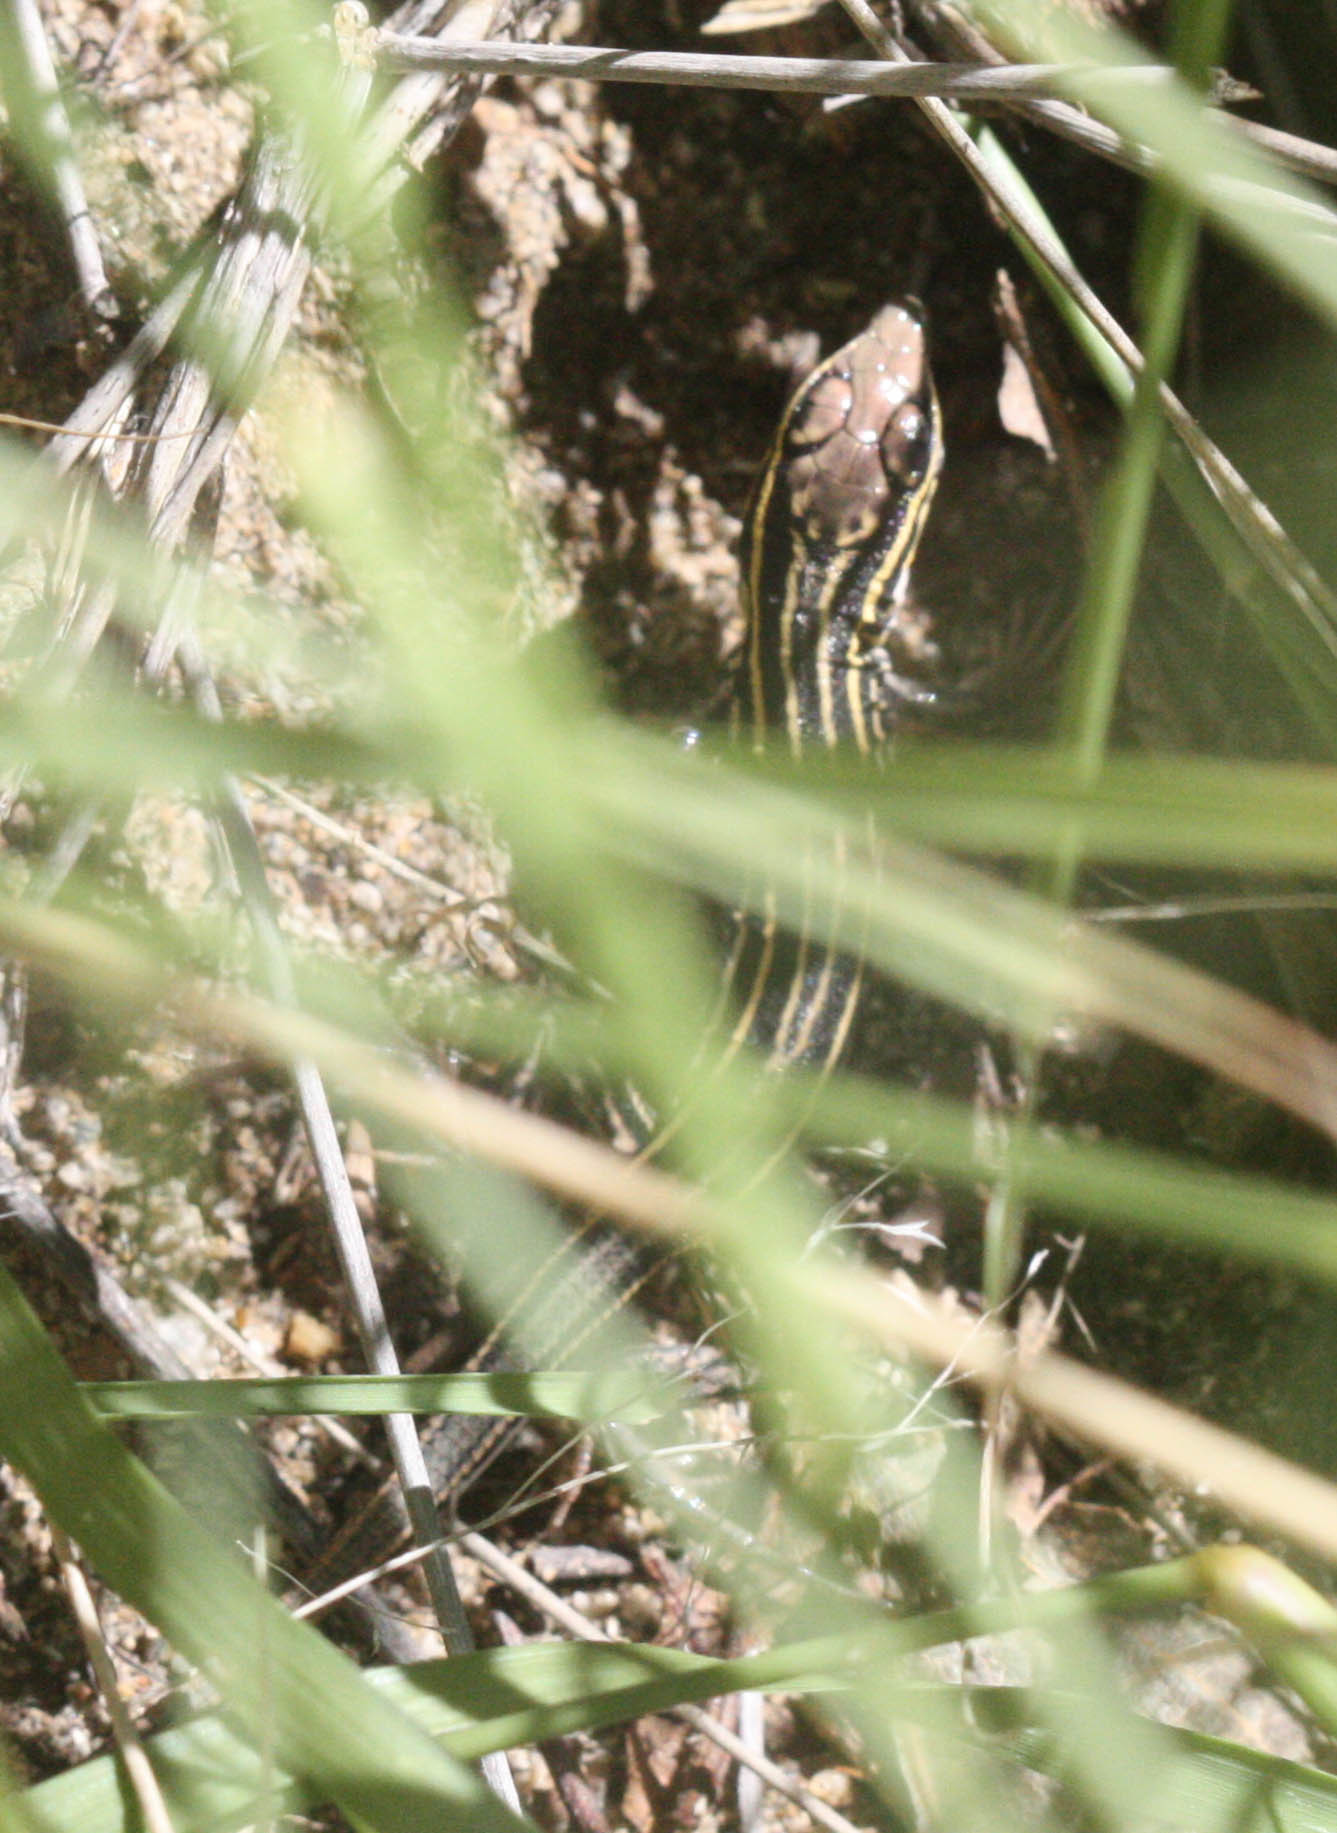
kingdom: Animalia
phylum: Chordata
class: Squamata
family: Teiidae
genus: Aspidoscelis
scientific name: Aspidoscelis uniparens
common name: Desert grassland whiptail
